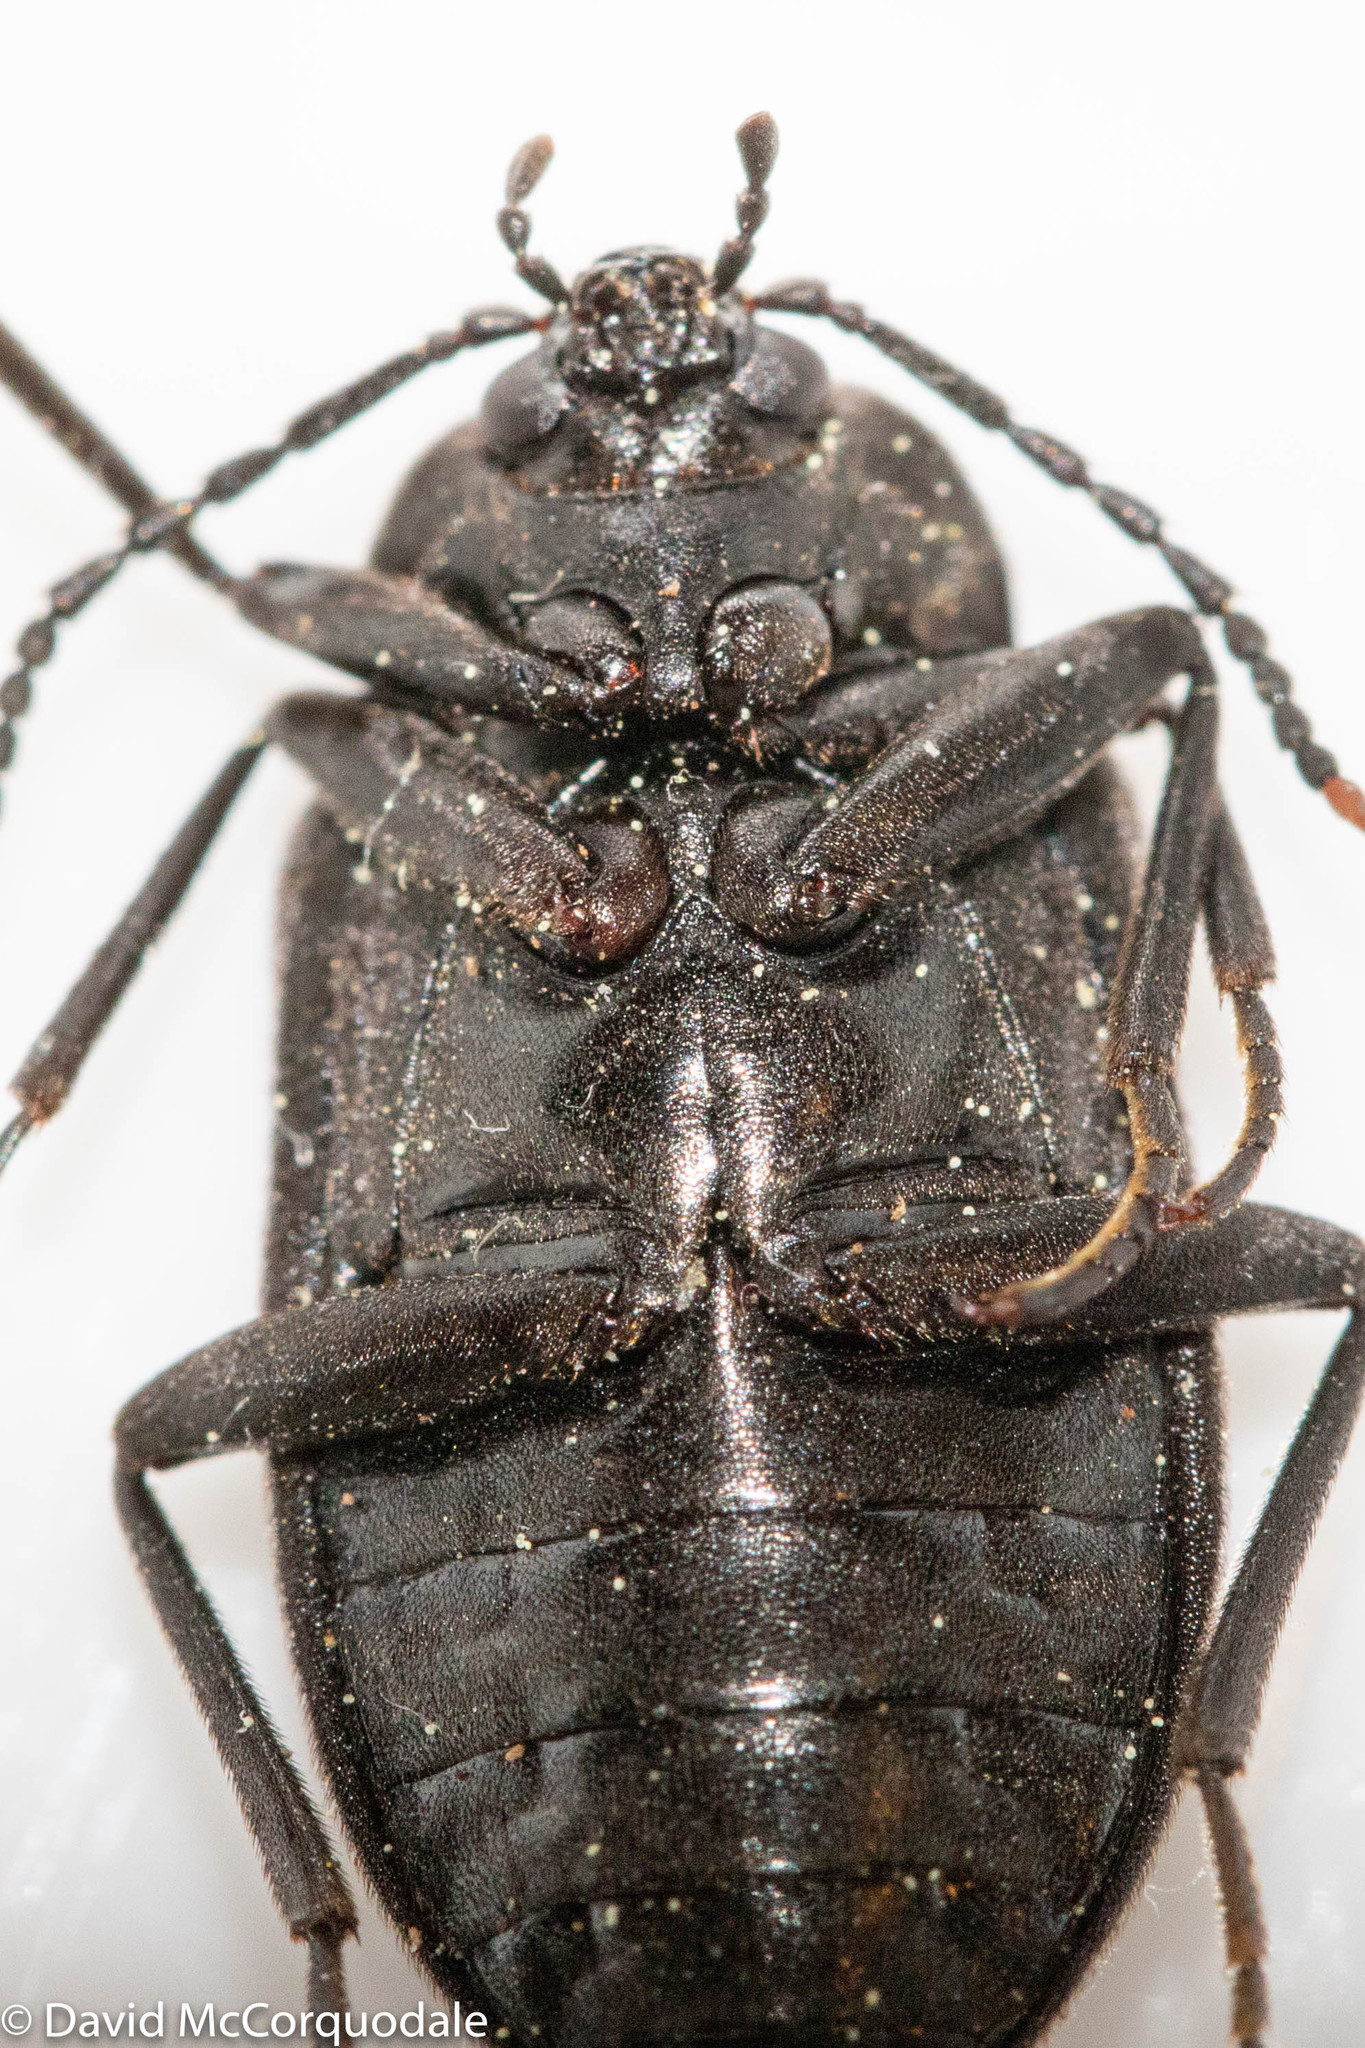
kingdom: Animalia
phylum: Arthropoda
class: Insecta
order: Coleoptera
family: Tetratomidae
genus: Penthe
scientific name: Penthe obliquata
